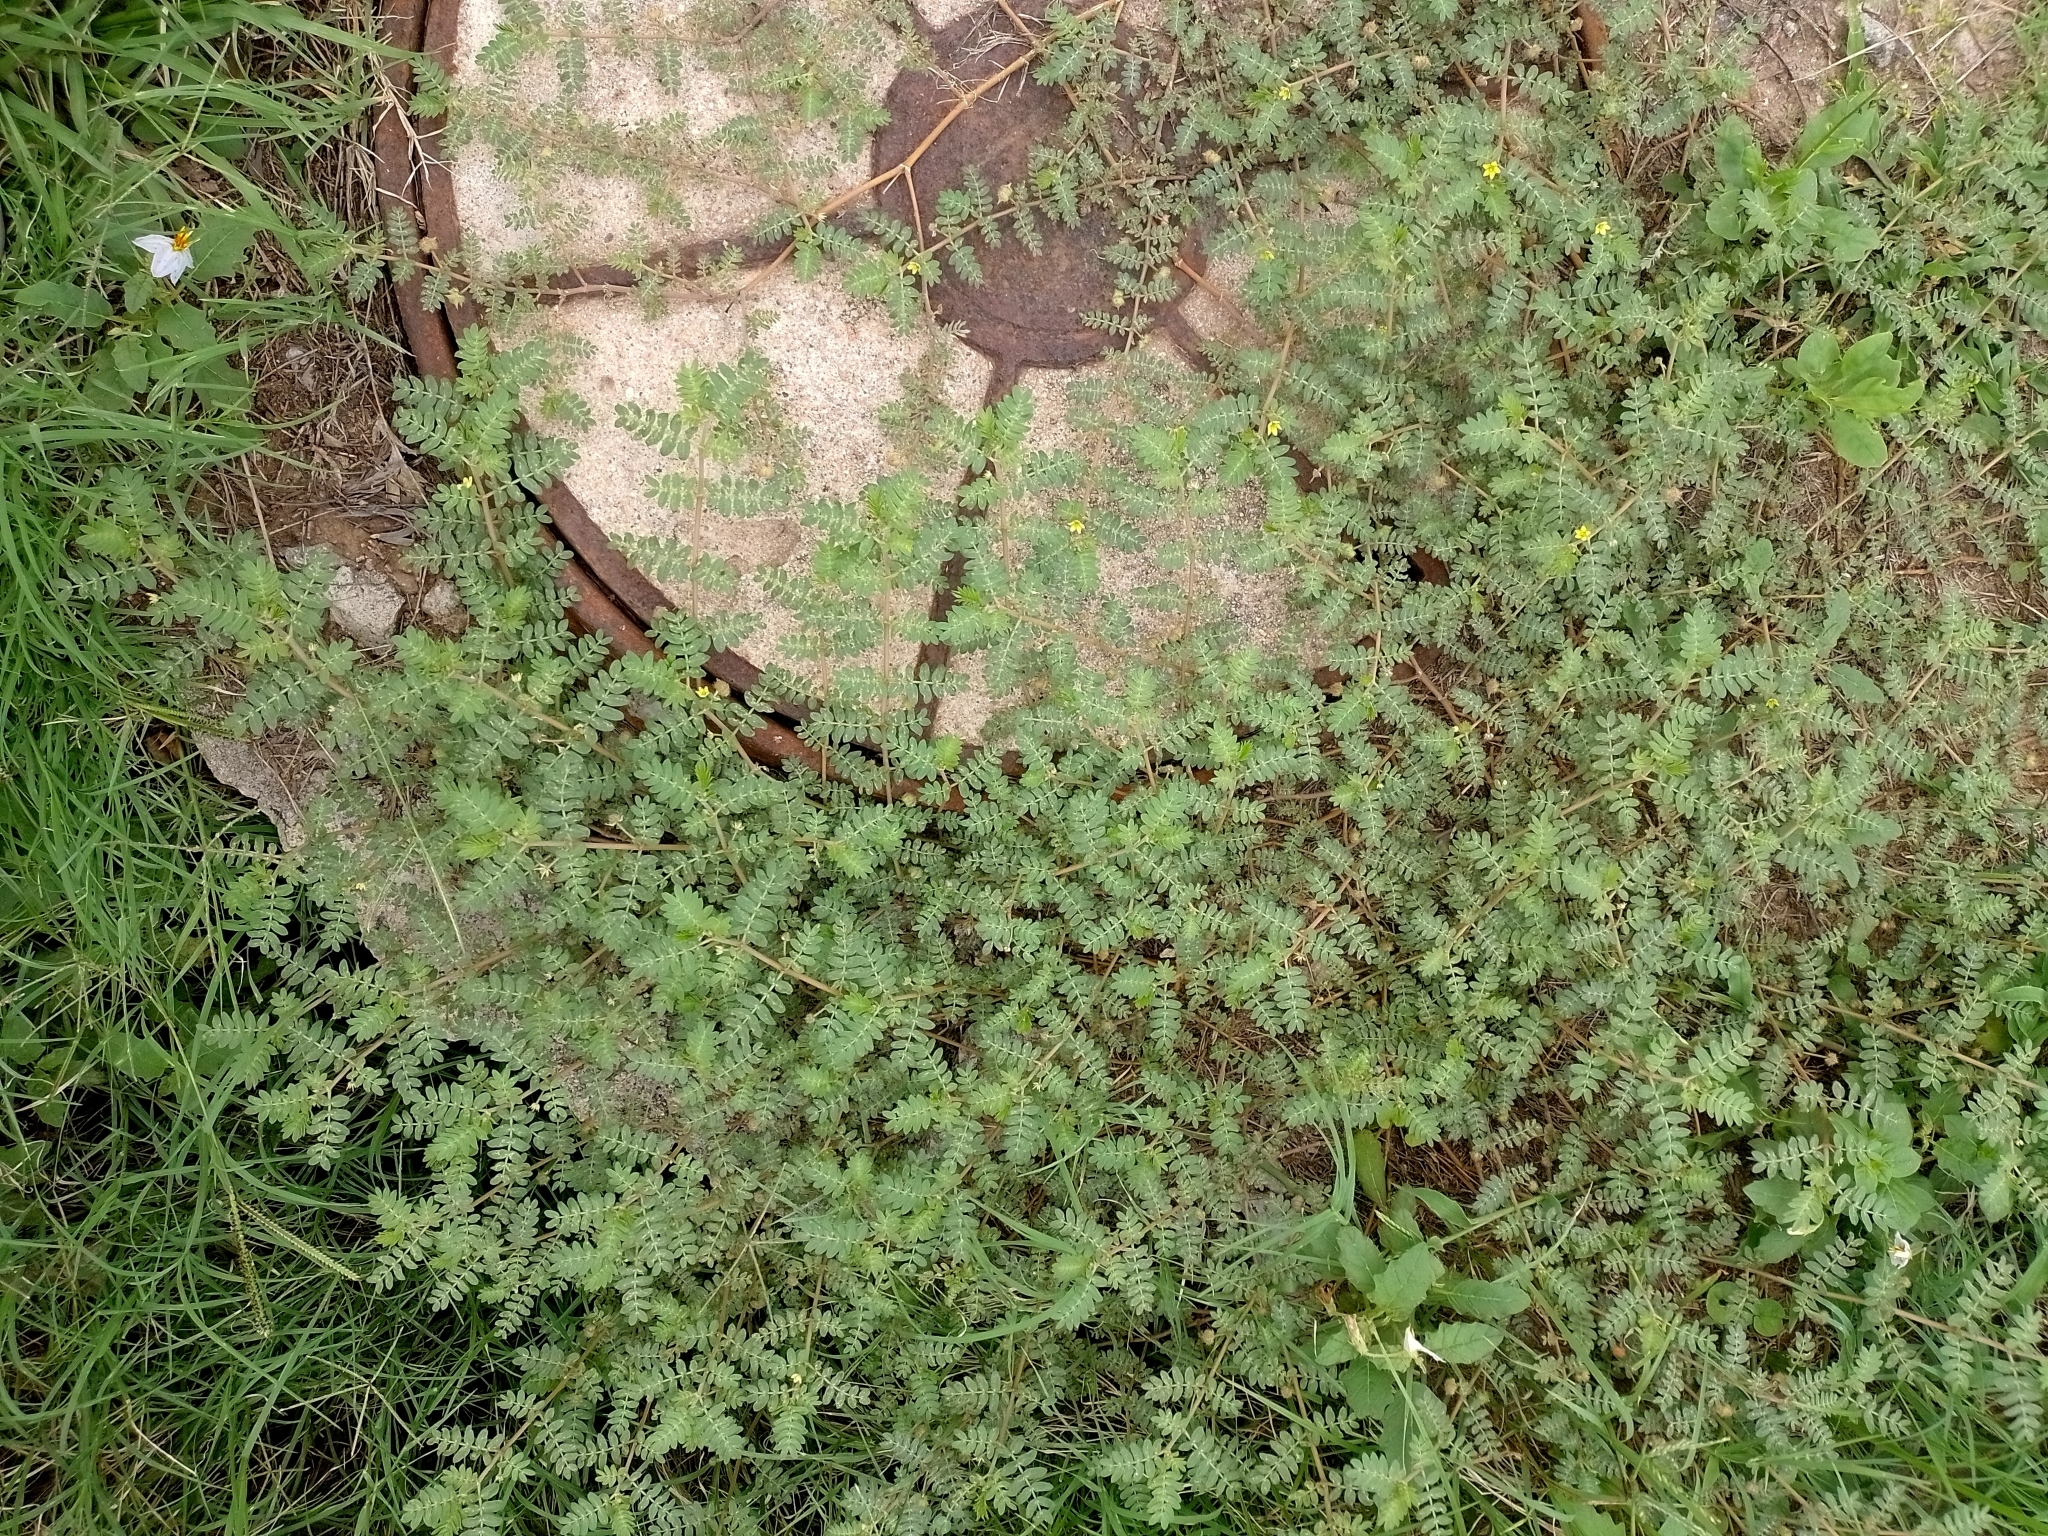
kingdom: Plantae
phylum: Tracheophyta
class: Magnoliopsida
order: Zygophyllales
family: Zygophyllaceae
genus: Tribulus
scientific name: Tribulus terrestris
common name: Puncturevine
